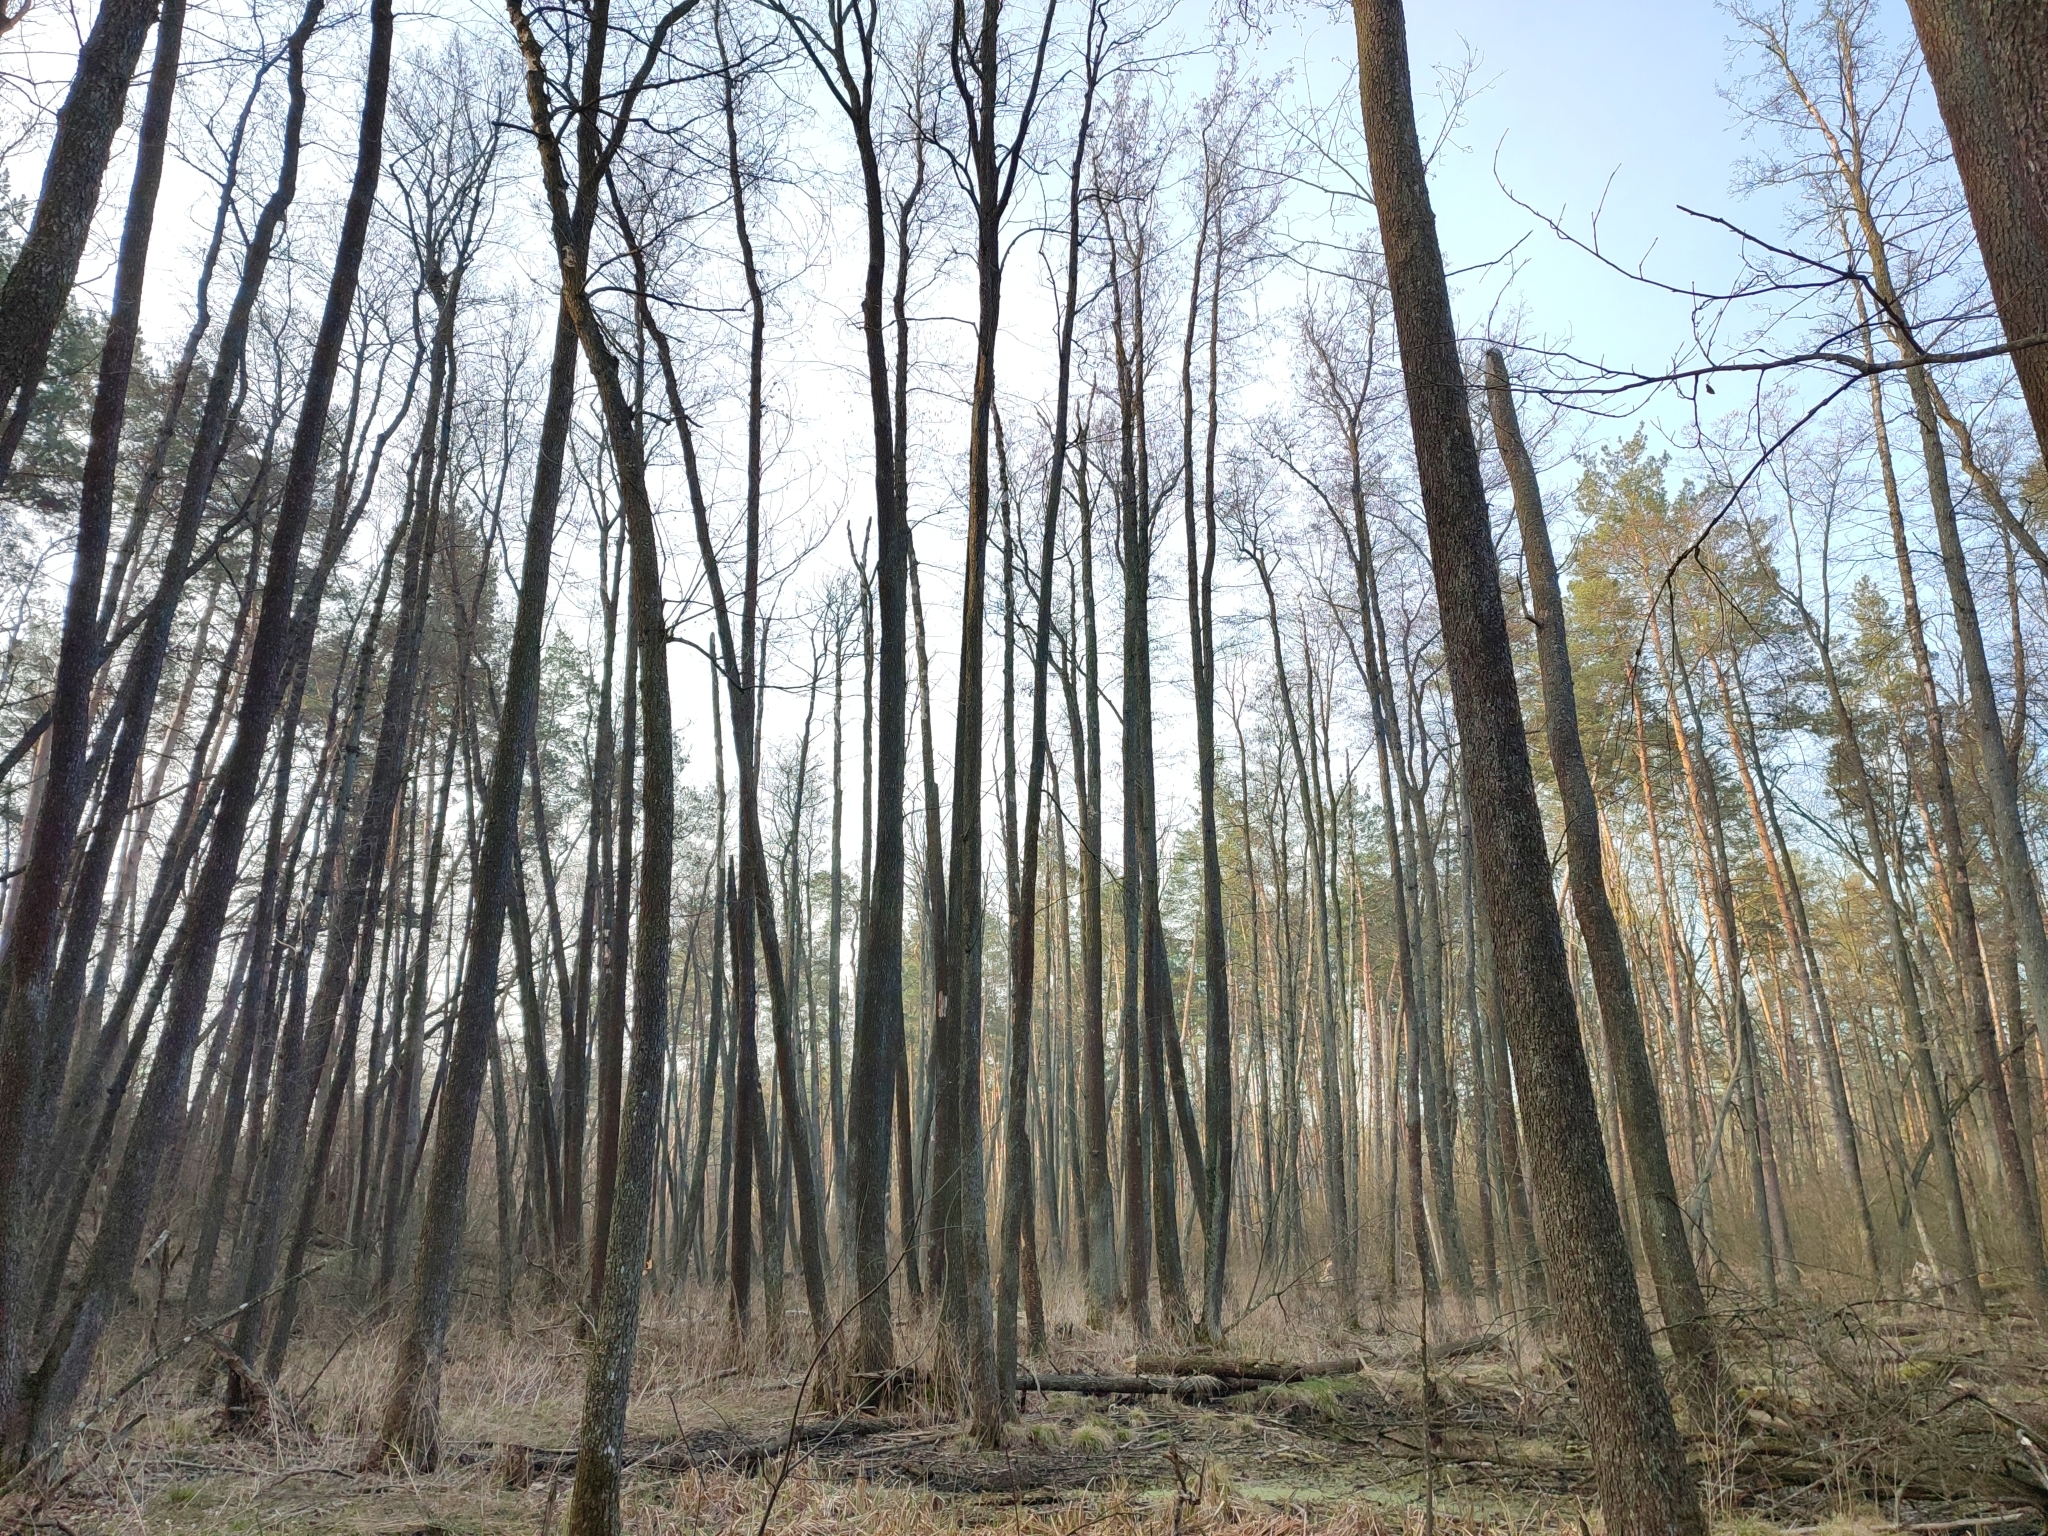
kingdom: Plantae
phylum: Tracheophyta
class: Magnoliopsida
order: Fagales
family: Betulaceae
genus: Alnus
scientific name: Alnus glutinosa
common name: Black alder
